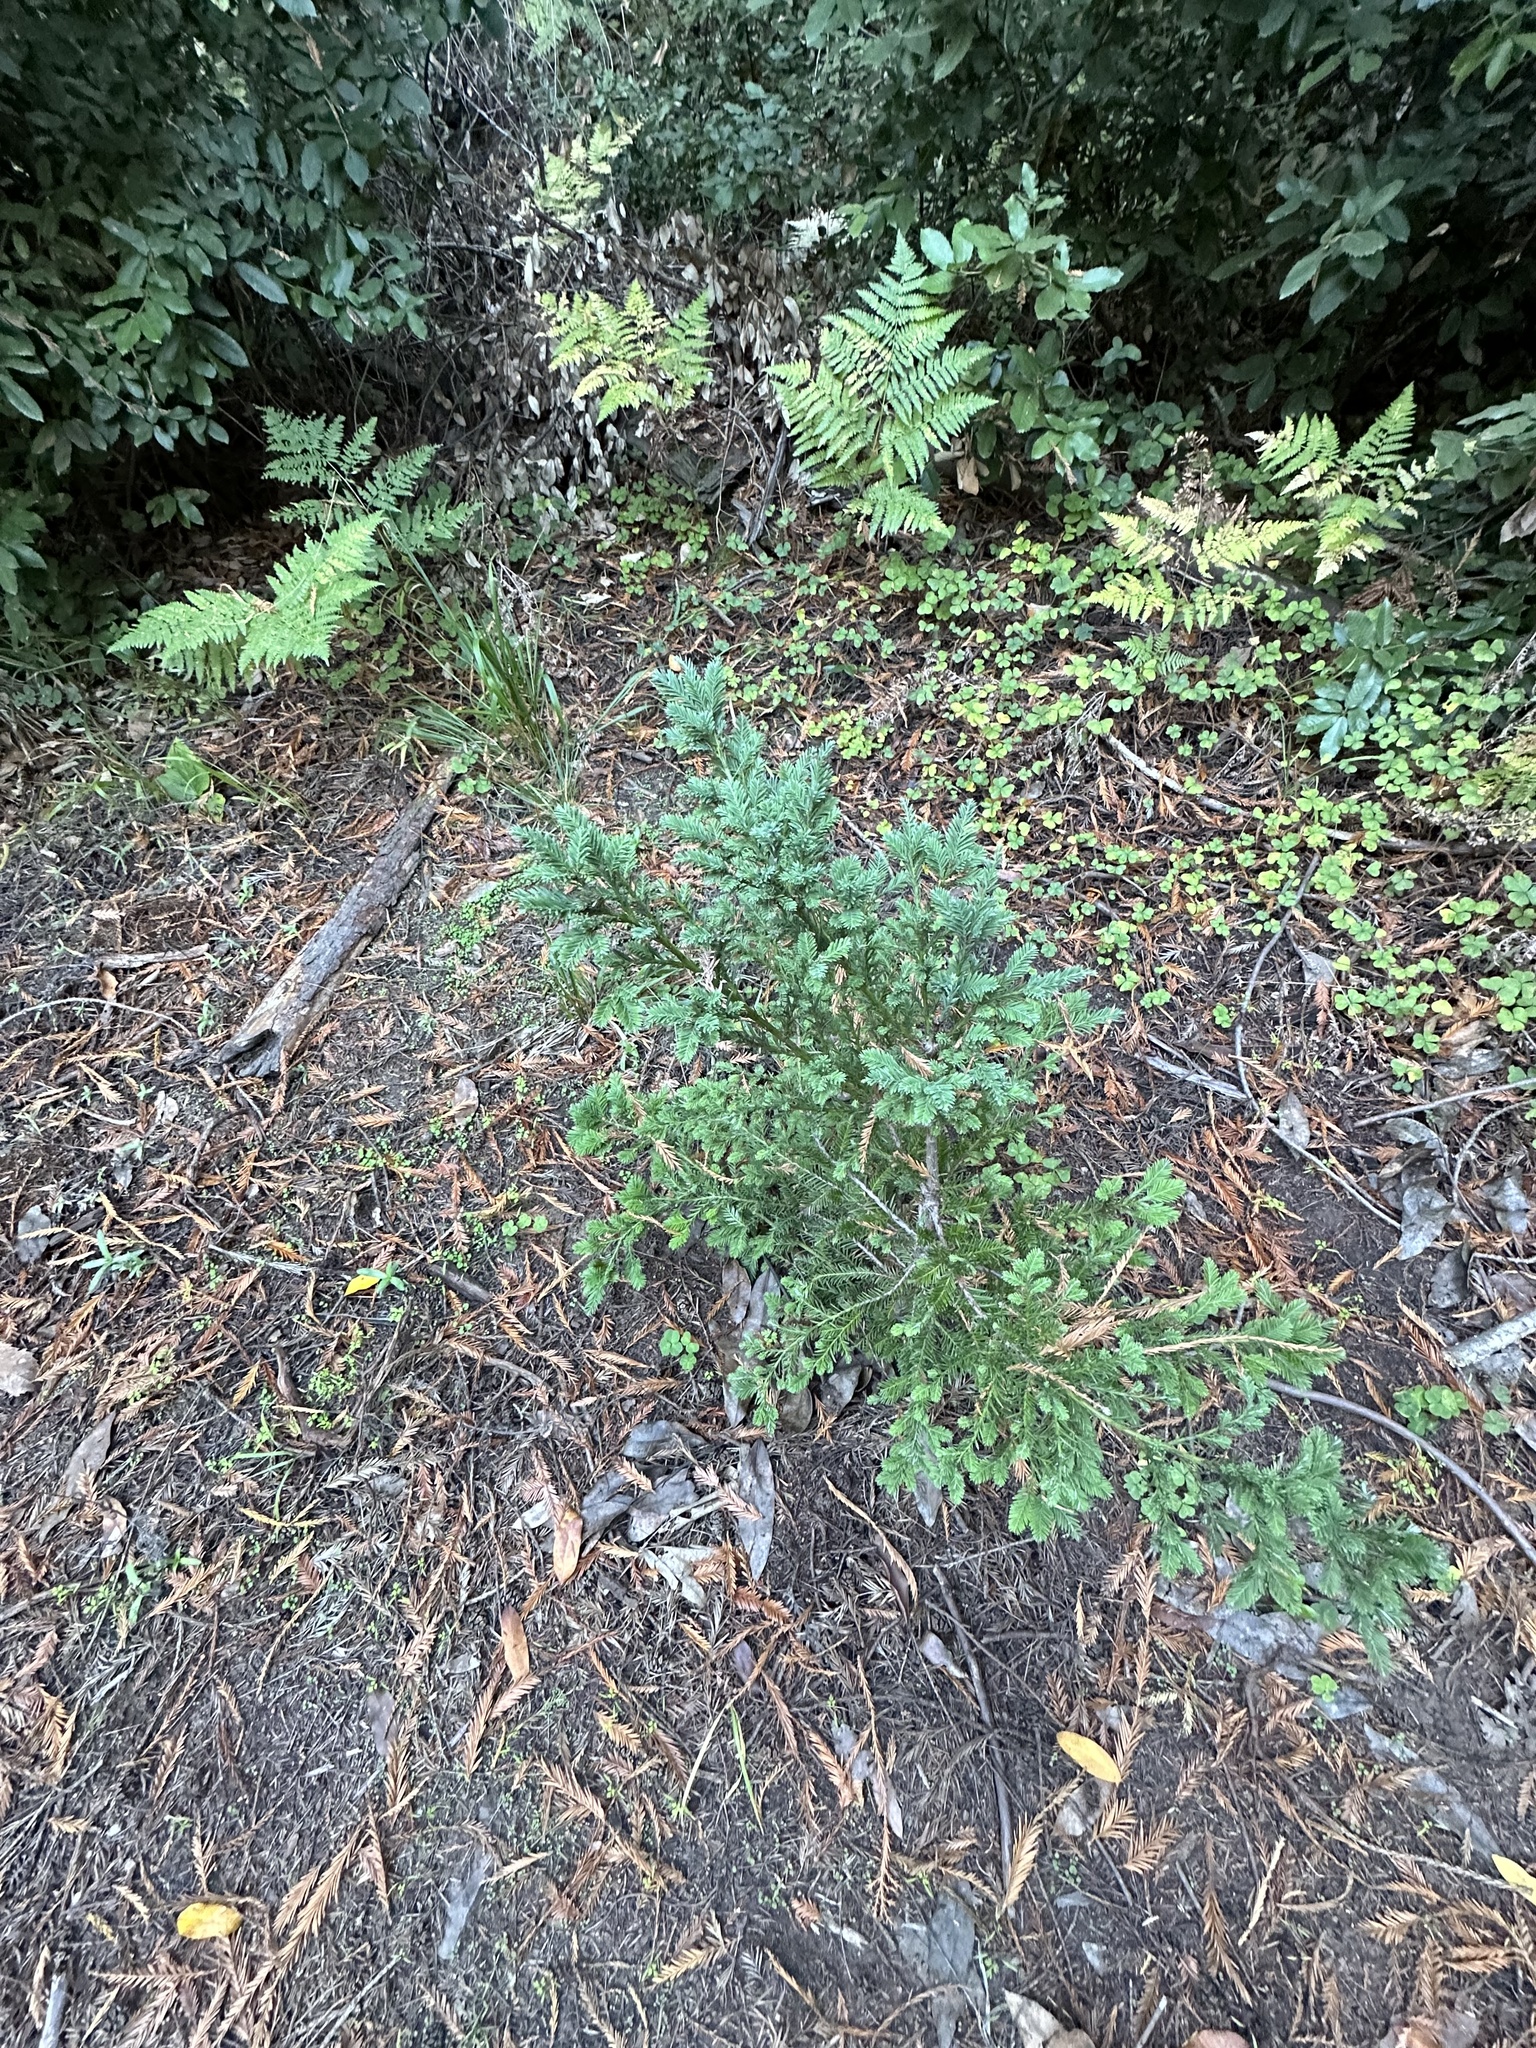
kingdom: Plantae
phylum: Tracheophyta
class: Pinopsida
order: Pinales
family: Cupressaceae
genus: Sequoia
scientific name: Sequoia sempervirens
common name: Coast redwood
